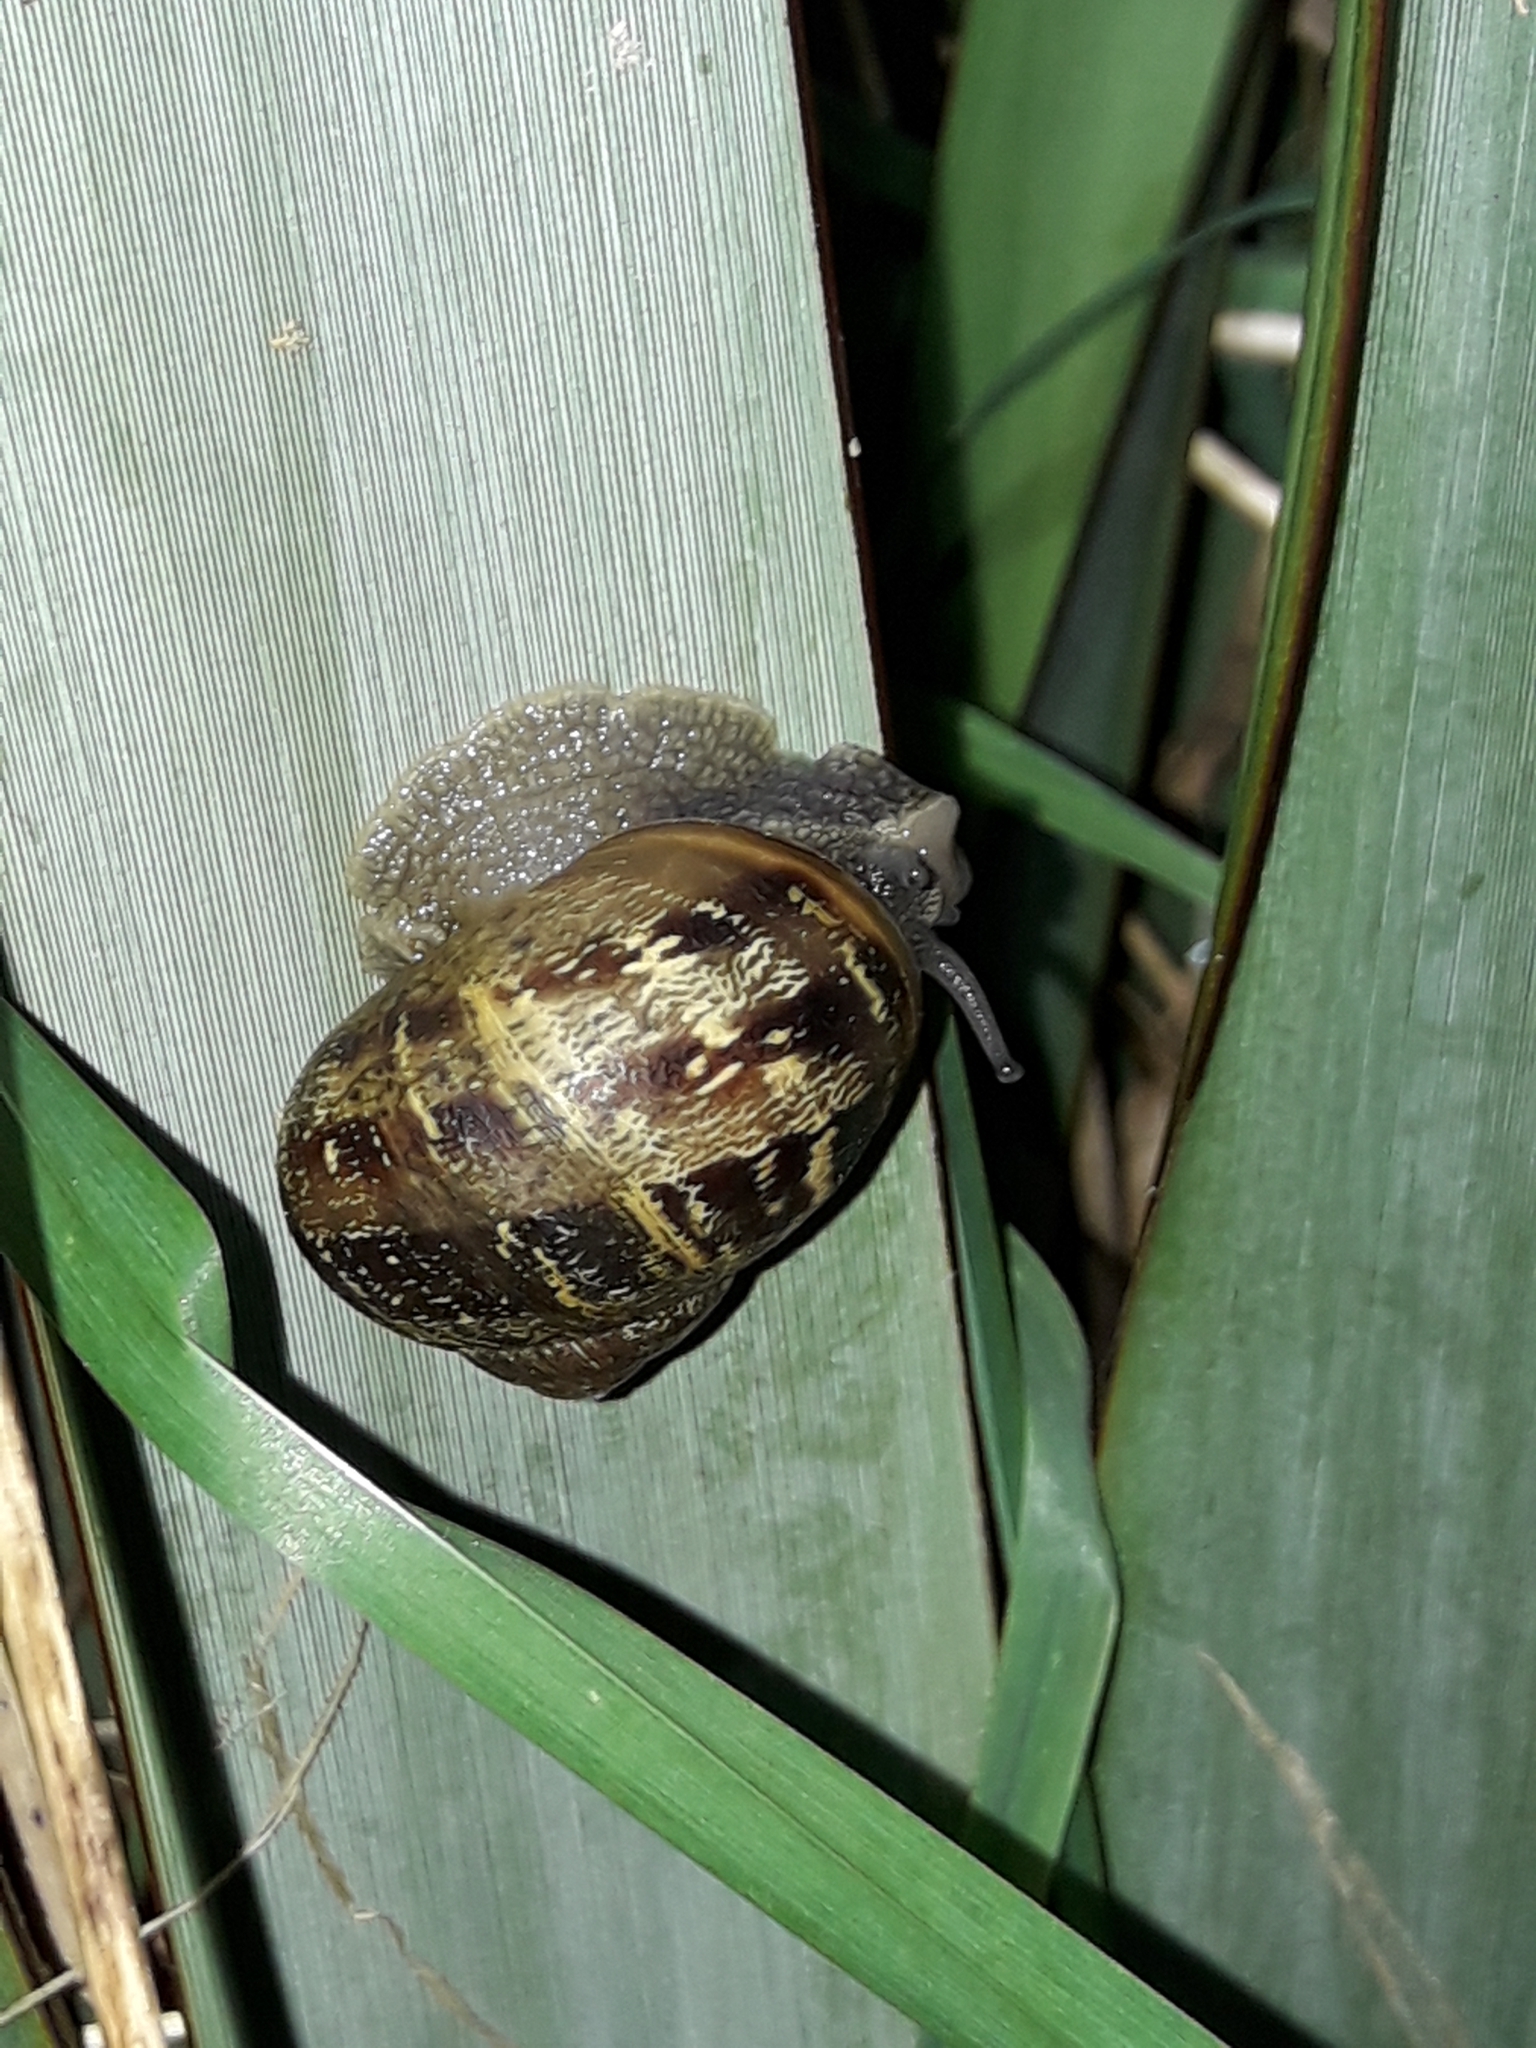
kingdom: Animalia
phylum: Mollusca
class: Gastropoda
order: Stylommatophora
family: Helicidae
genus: Cornu
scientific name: Cornu aspersum
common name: Brown garden snail
